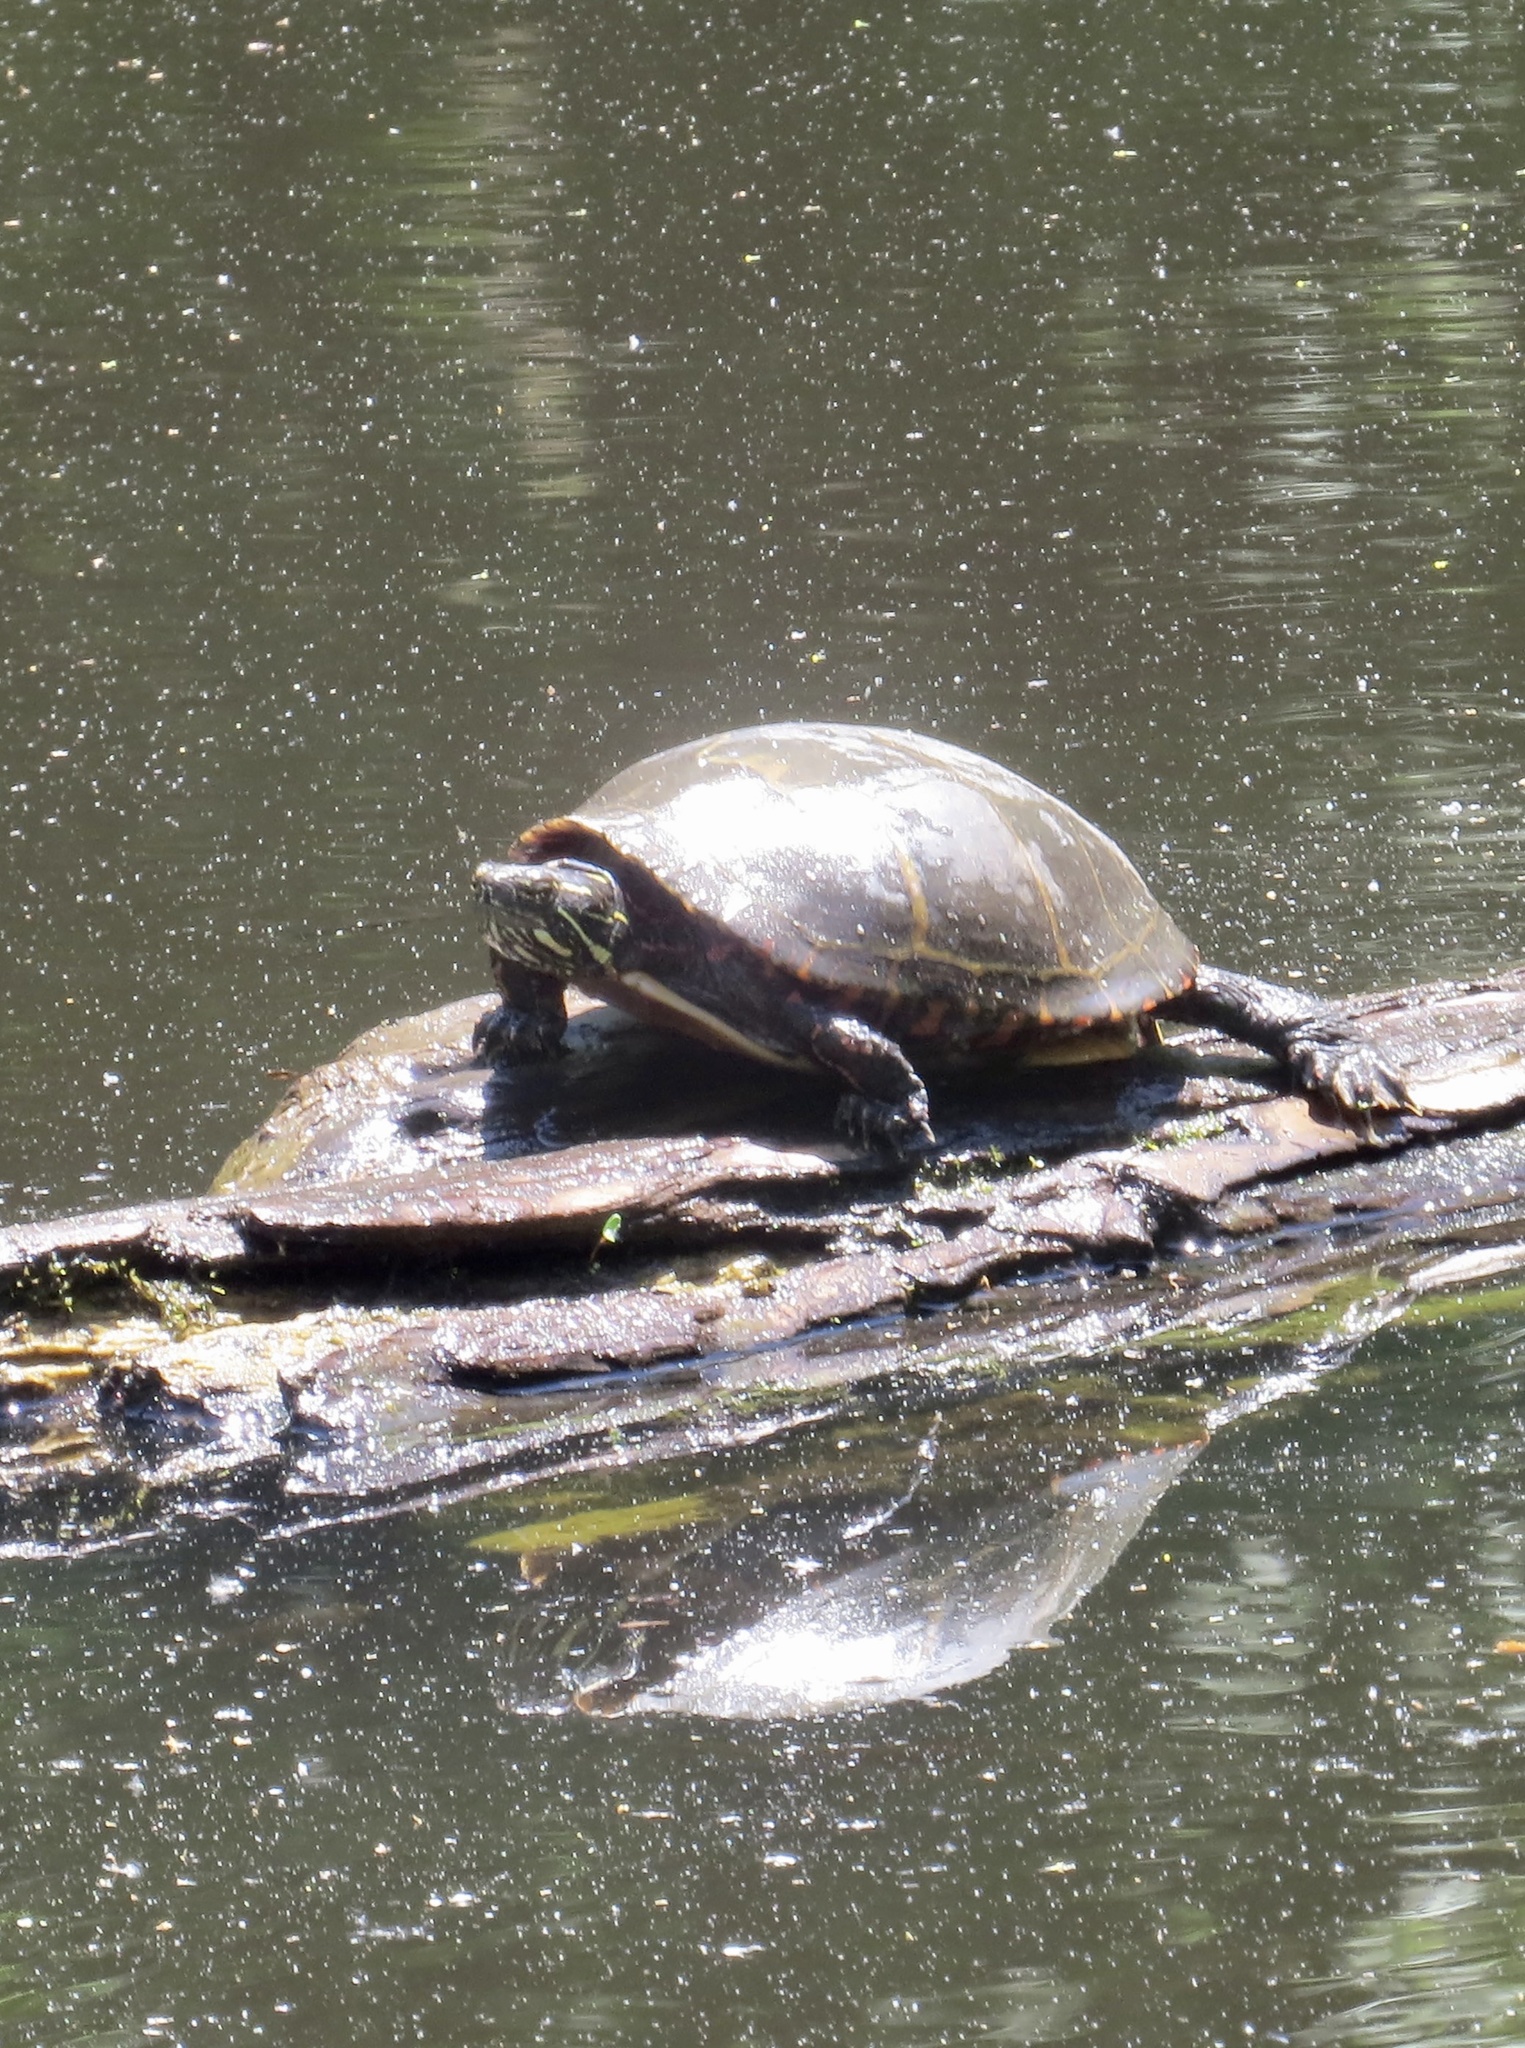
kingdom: Animalia
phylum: Chordata
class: Testudines
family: Emydidae
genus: Chrysemys
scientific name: Chrysemys picta
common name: Painted turtle
